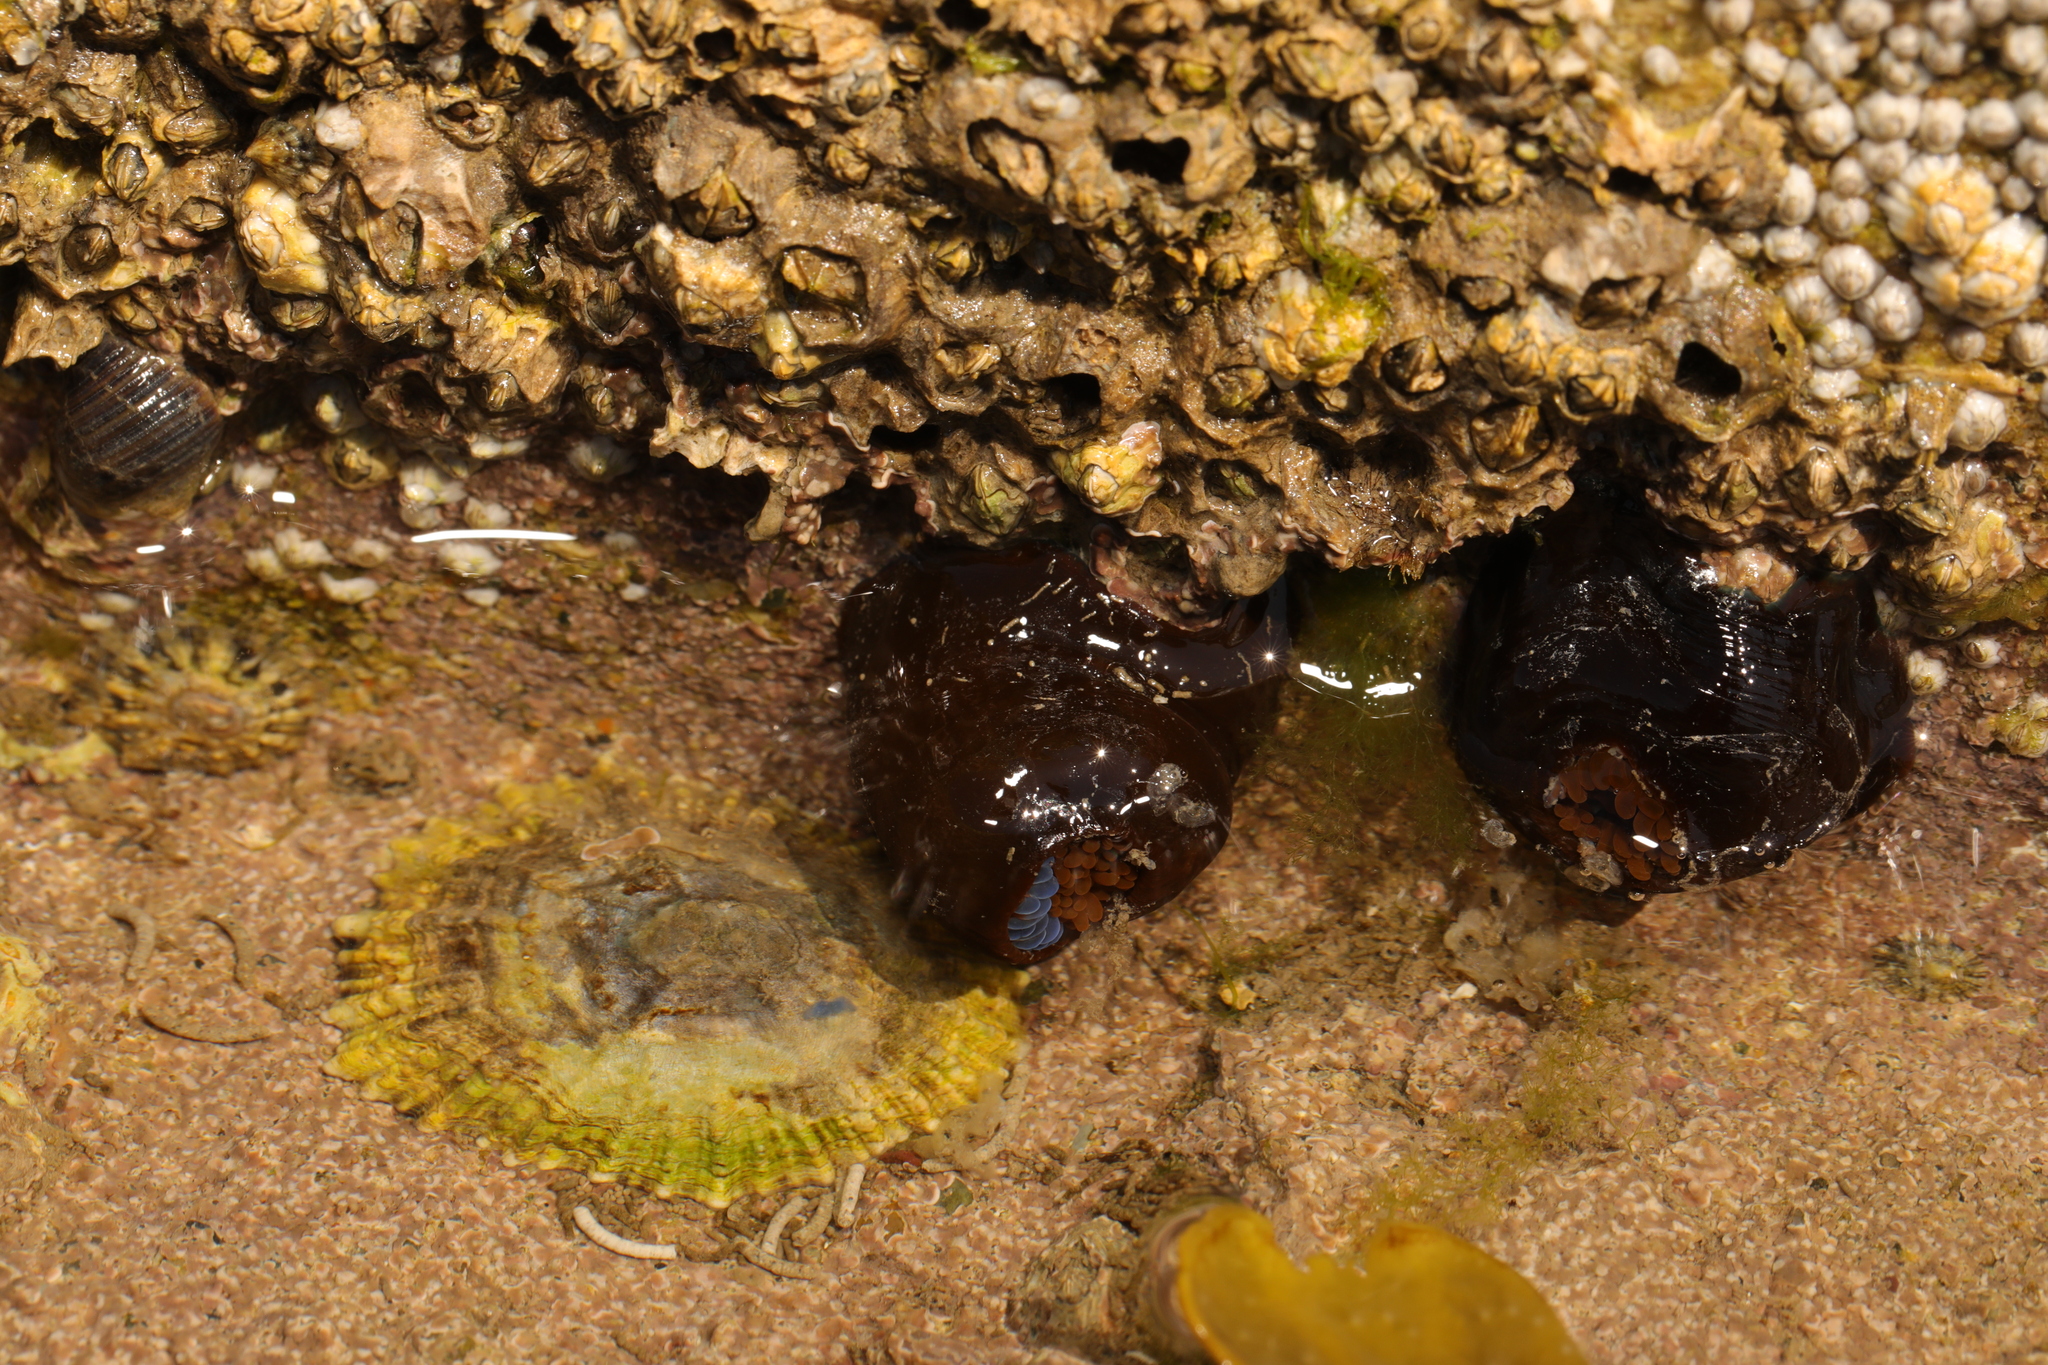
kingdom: Animalia
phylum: Cnidaria
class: Anthozoa
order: Actiniaria
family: Actiniidae
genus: Actinia
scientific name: Actinia equina
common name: Beadlet anemone
